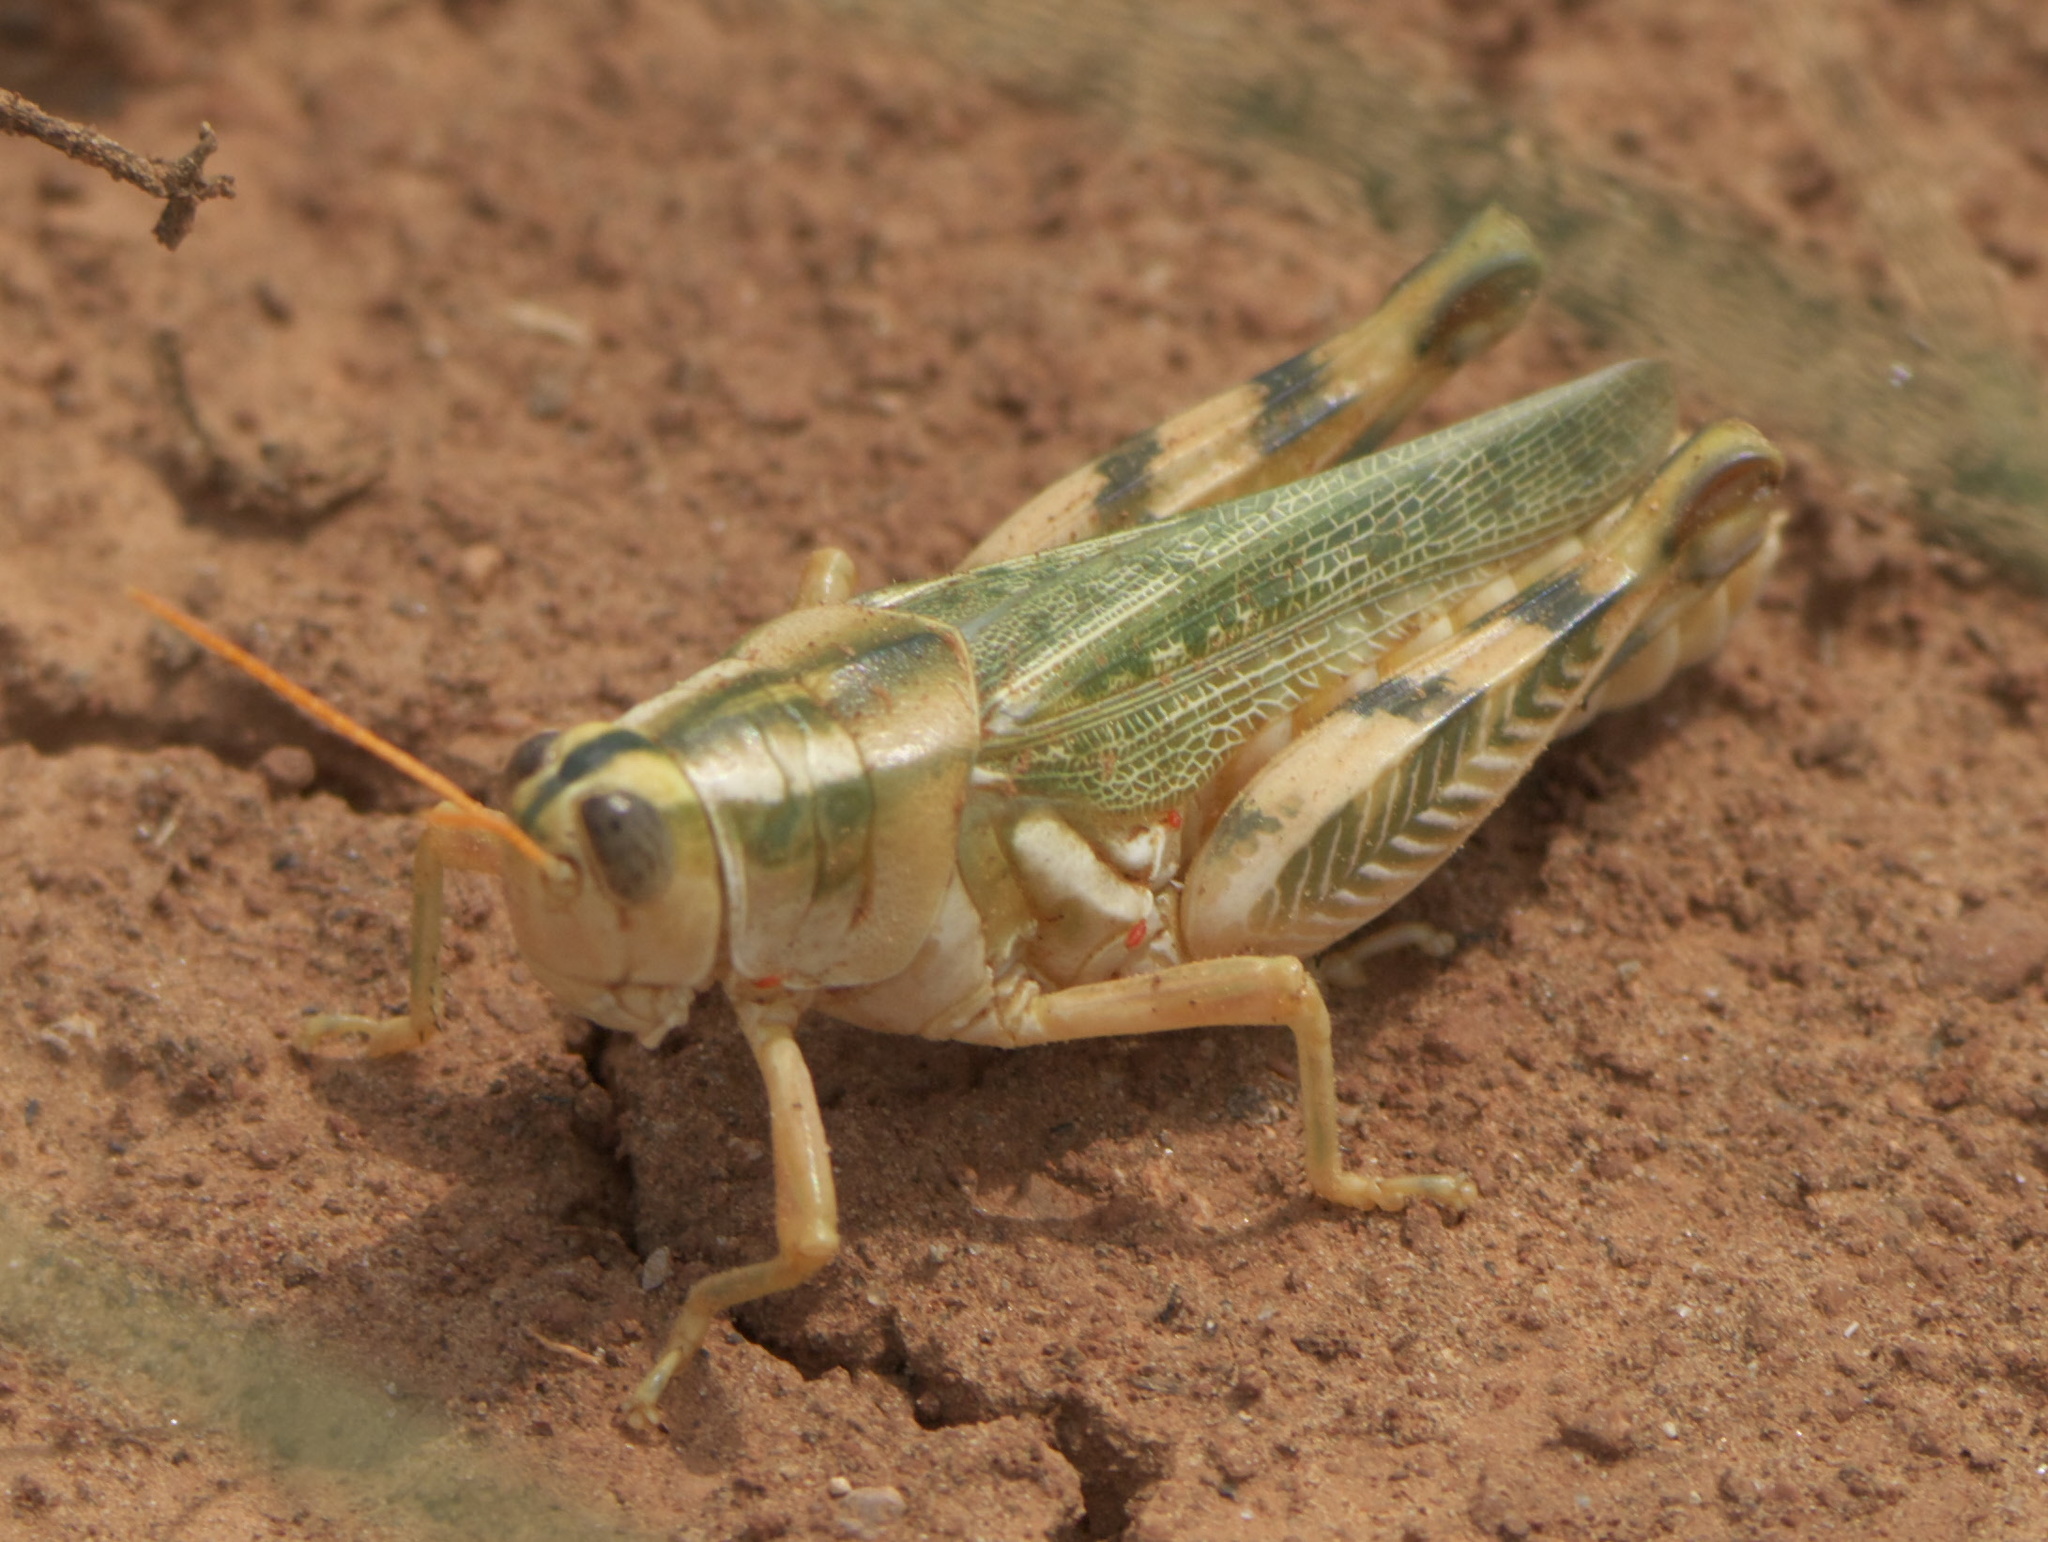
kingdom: Animalia
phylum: Arthropoda
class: Insecta
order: Orthoptera
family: Acrididae
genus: Aeoloplides
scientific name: Aeoloplides turnbulli
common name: Russianthistle grasshopper
